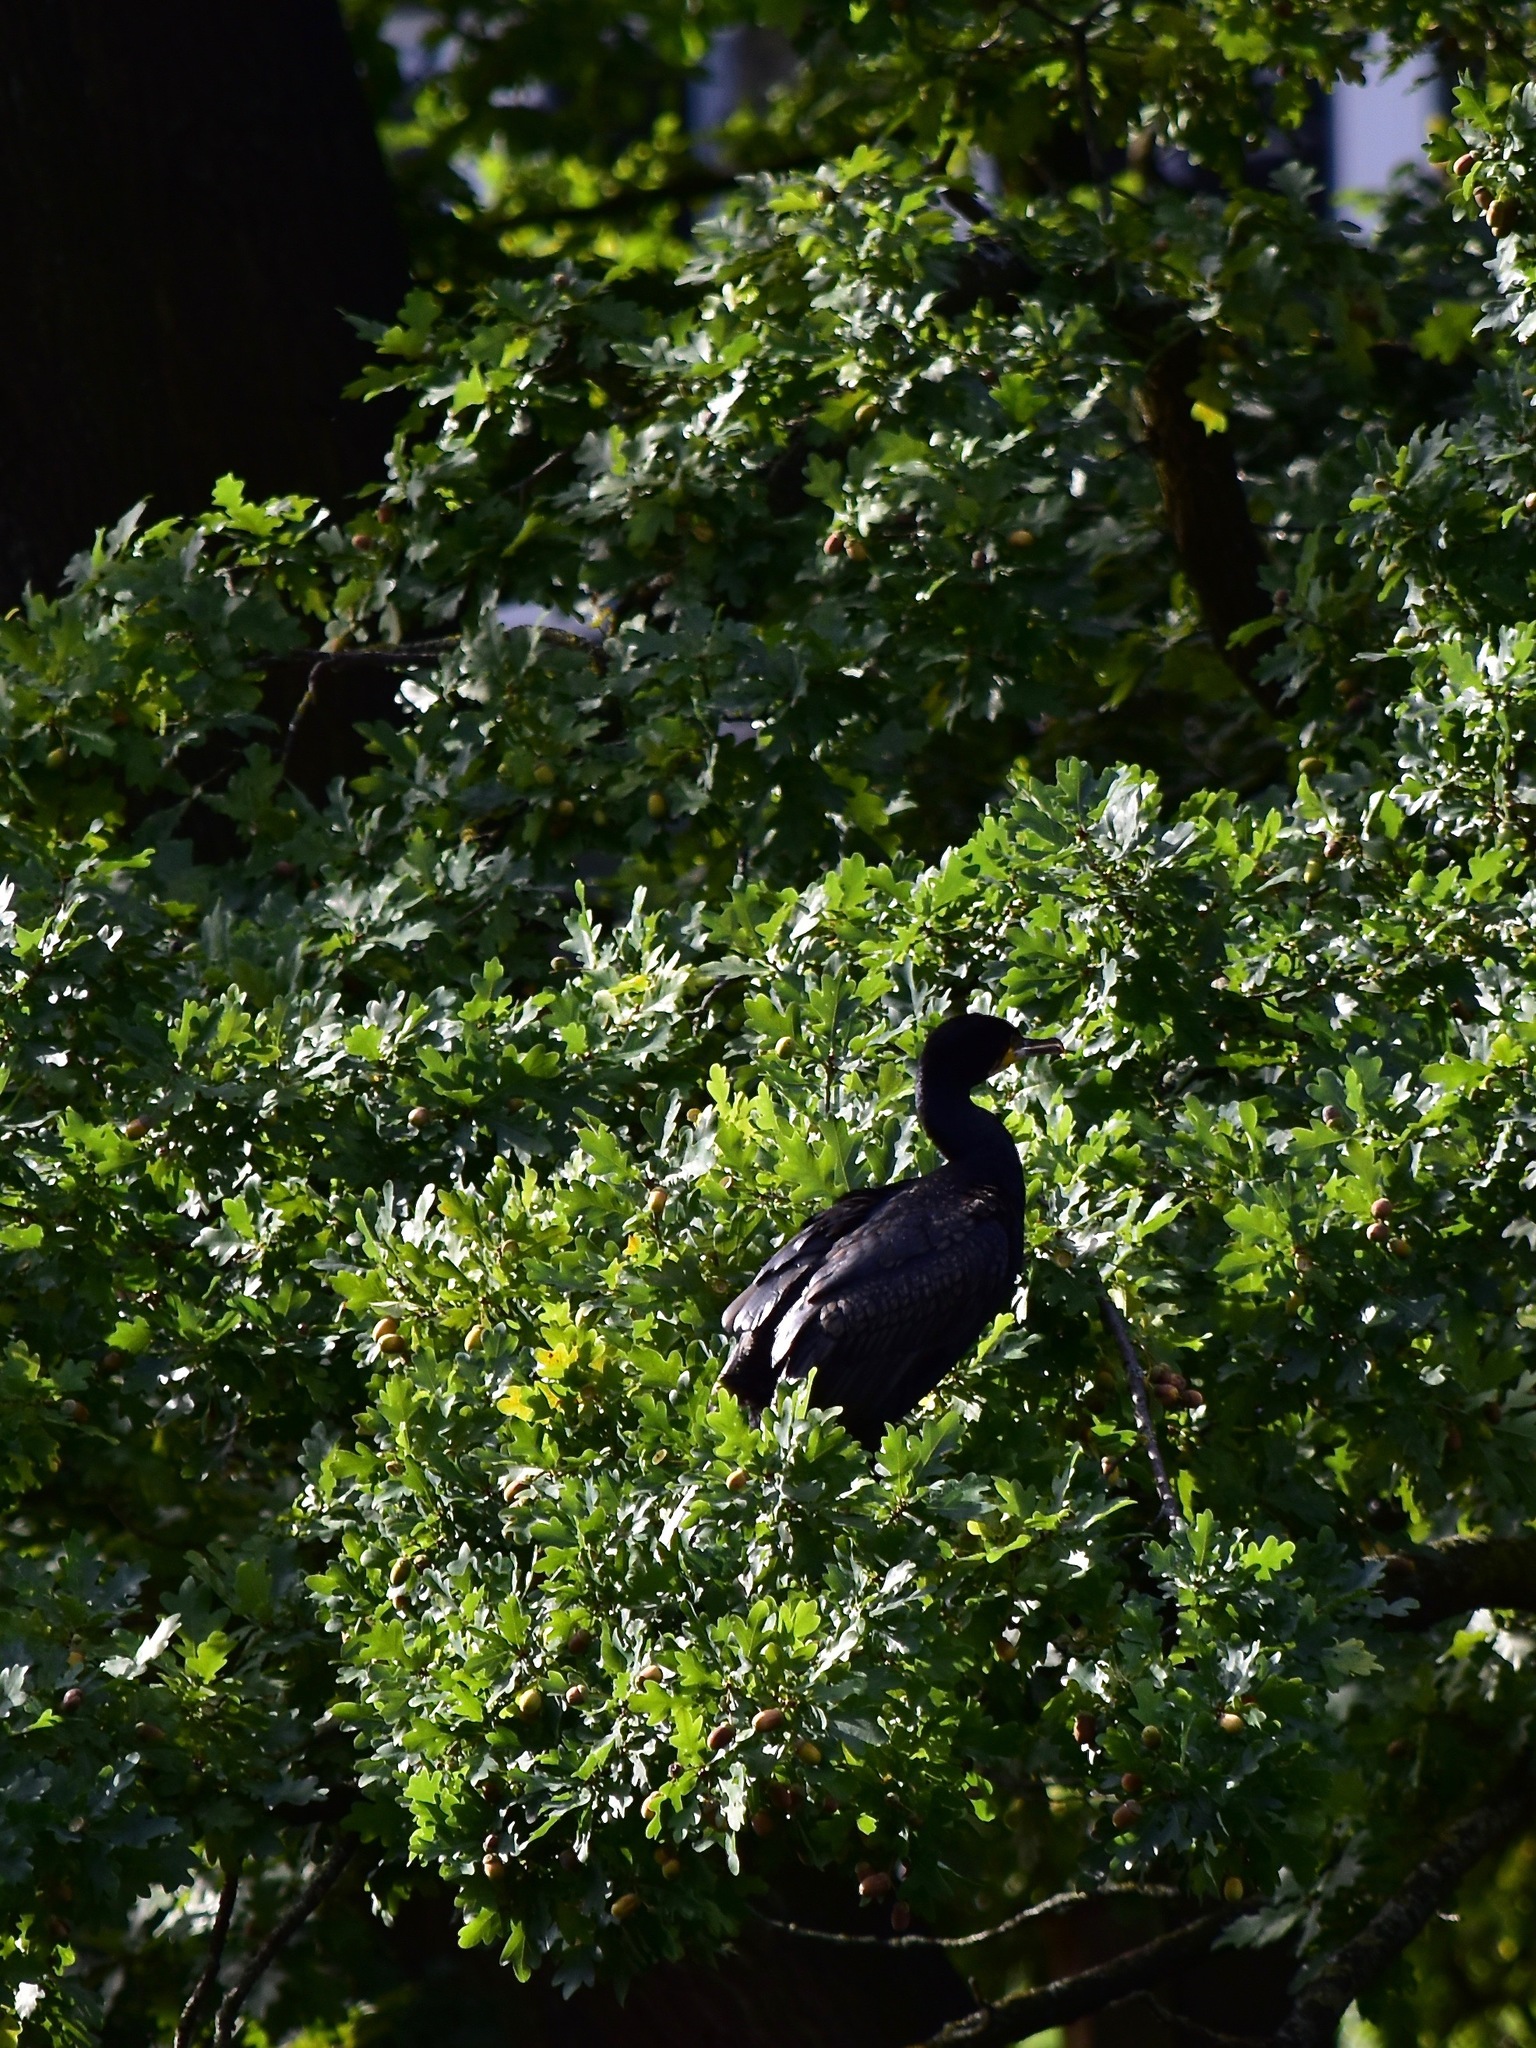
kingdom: Animalia
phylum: Chordata
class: Aves
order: Suliformes
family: Phalacrocoracidae
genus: Phalacrocorax
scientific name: Phalacrocorax carbo
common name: Great cormorant
